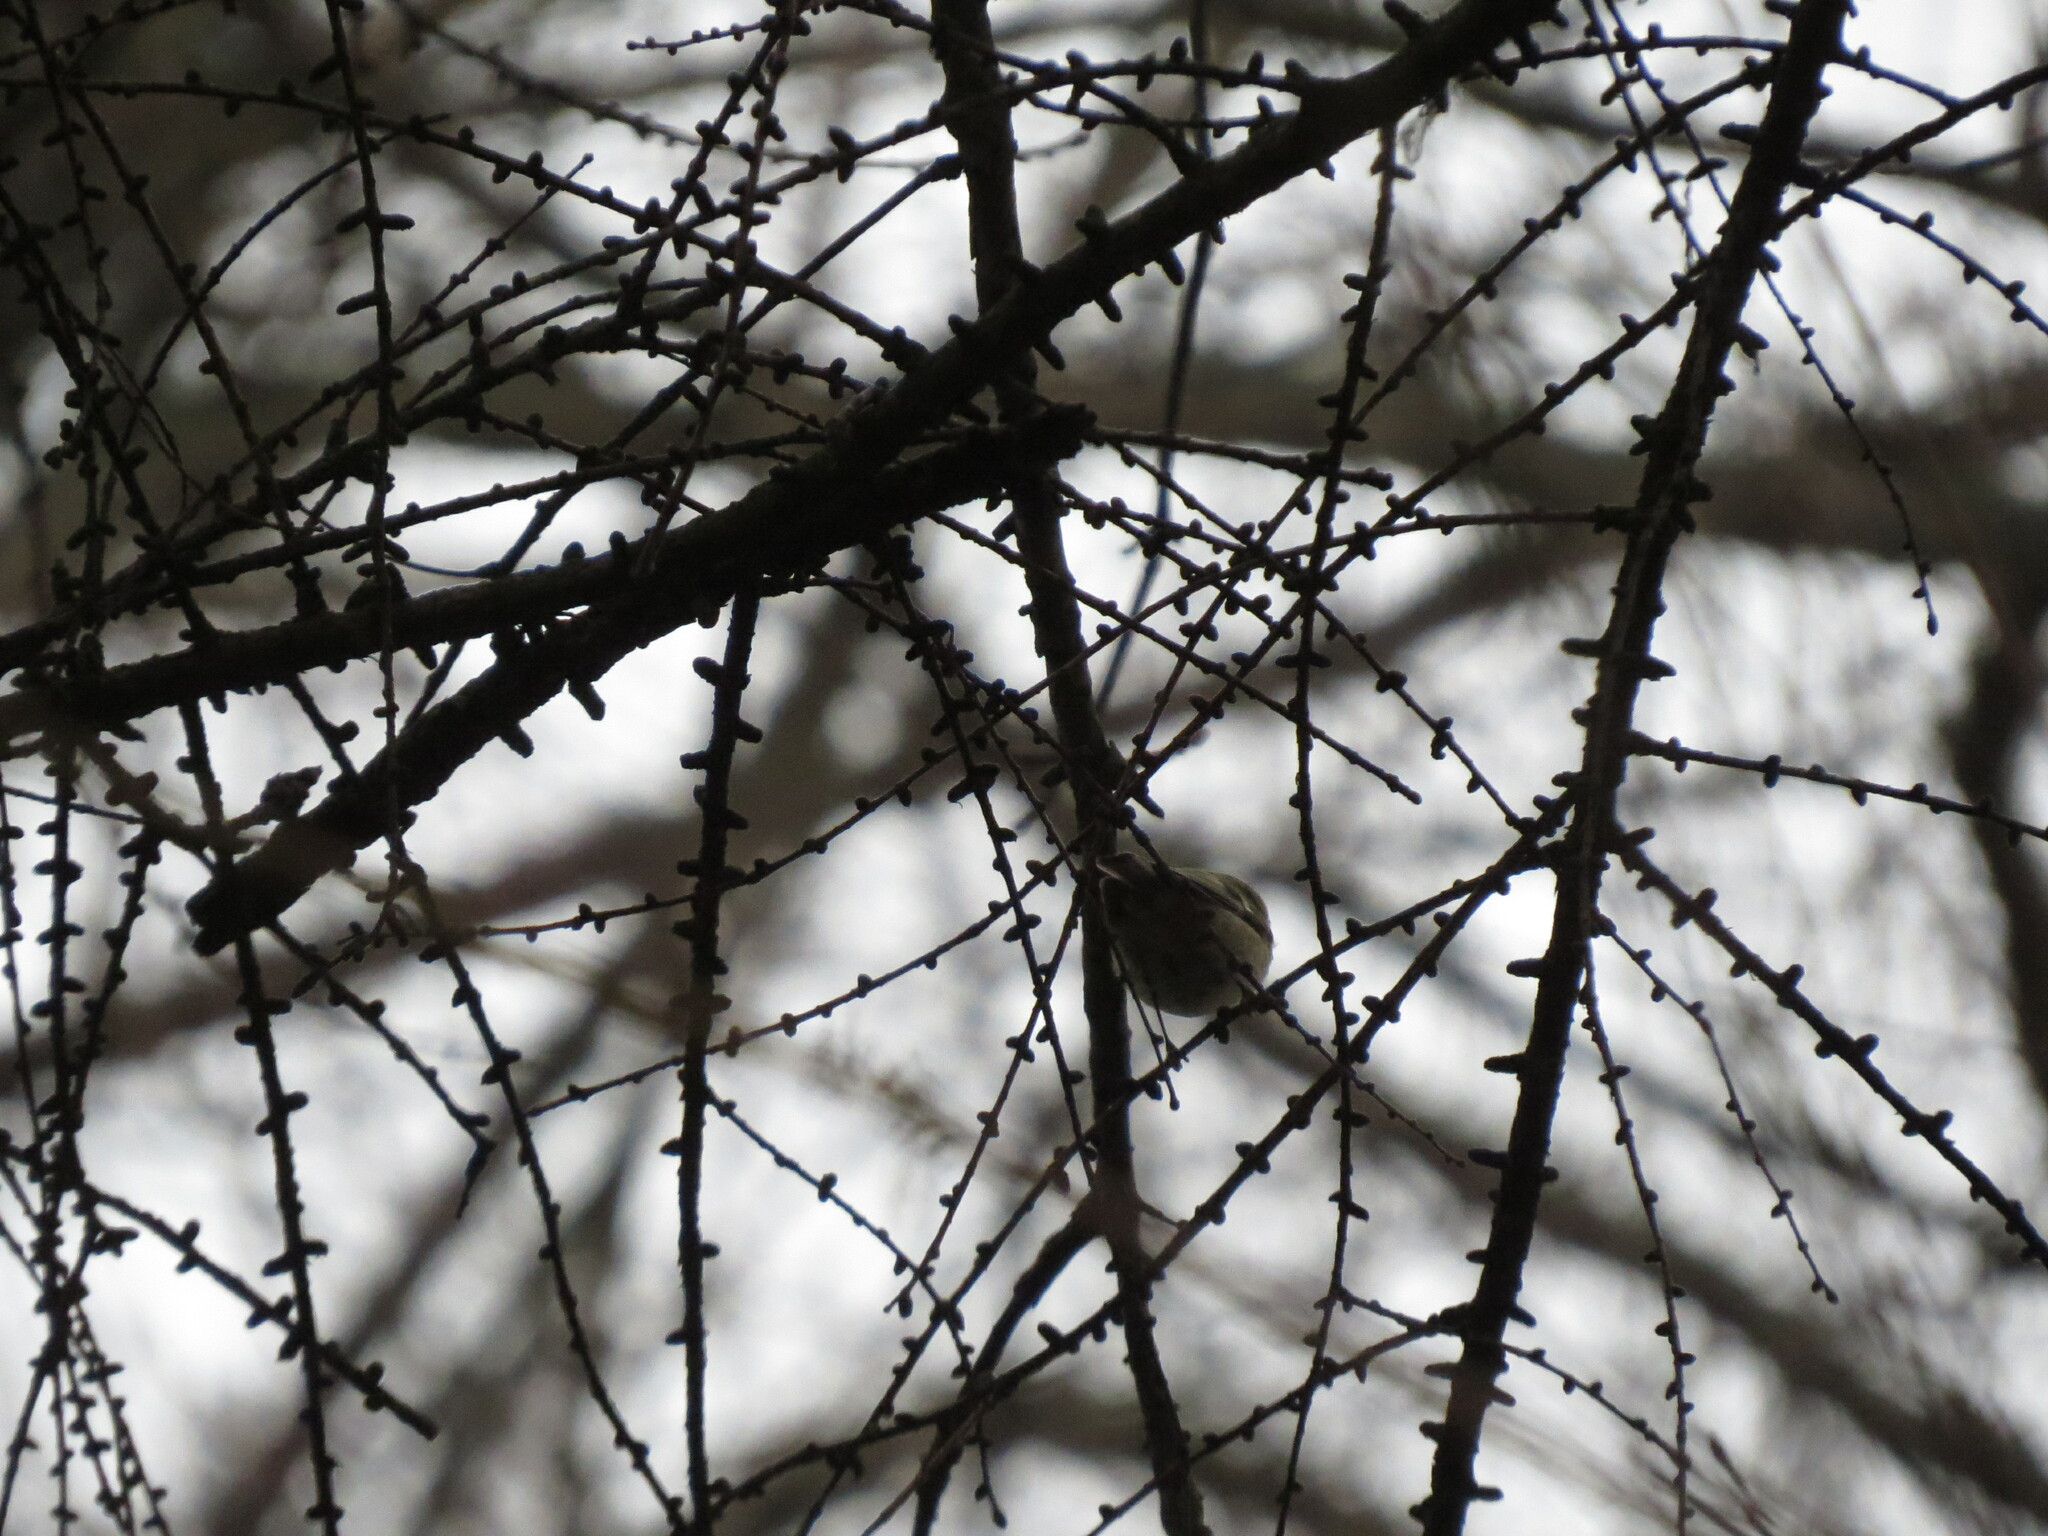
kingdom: Animalia
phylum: Chordata
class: Aves
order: Passeriformes
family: Regulidae
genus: Regulus
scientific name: Regulus regulus
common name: Goldcrest
